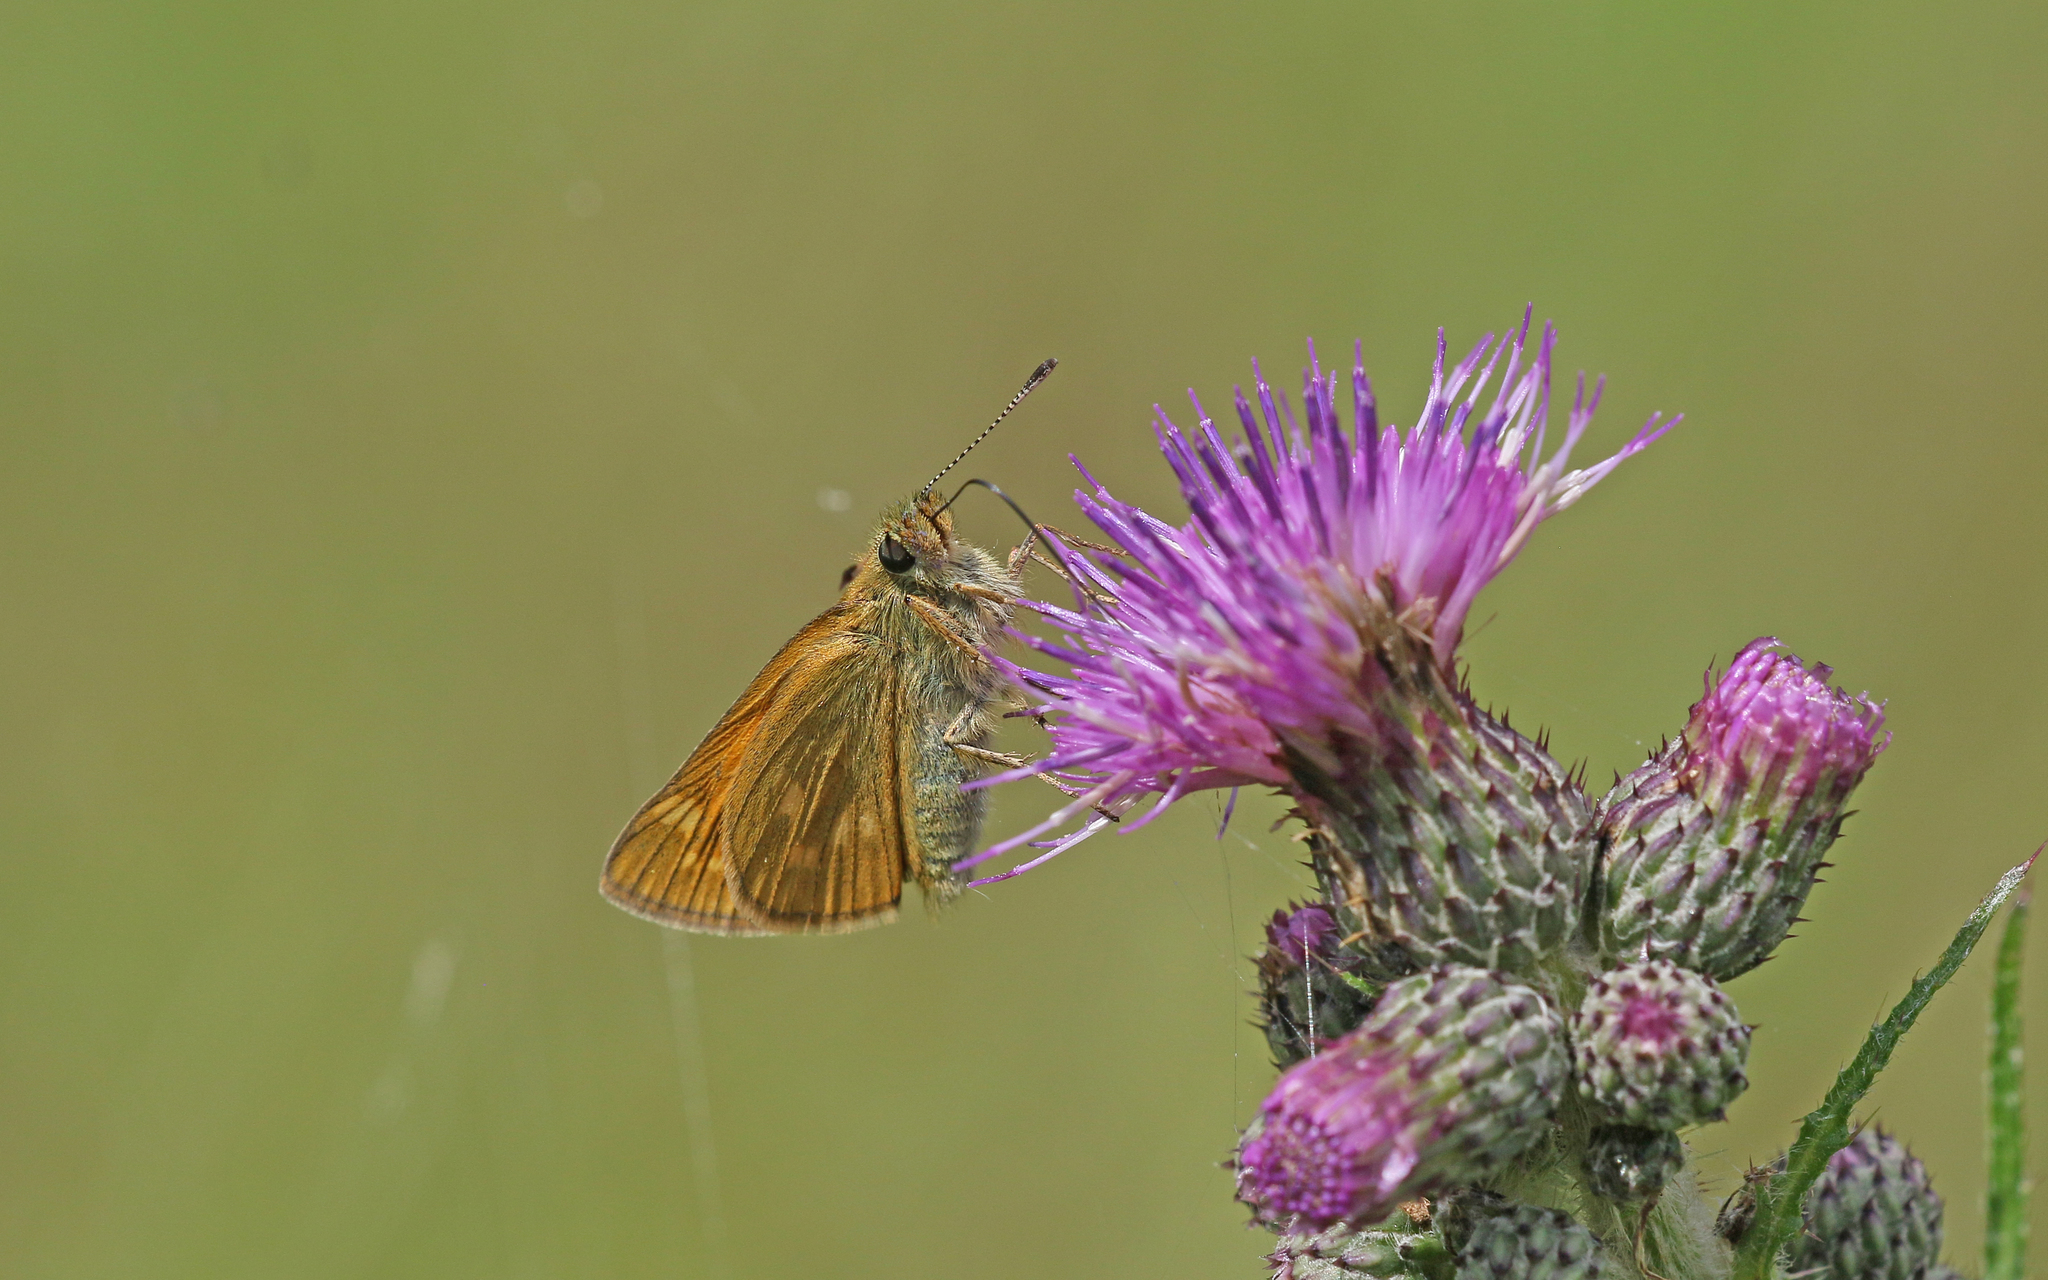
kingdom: Animalia
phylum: Arthropoda
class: Insecta
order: Lepidoptera
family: Hesperiidae
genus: Ochlodes
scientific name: Ochlodes venata
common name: Large skipper
